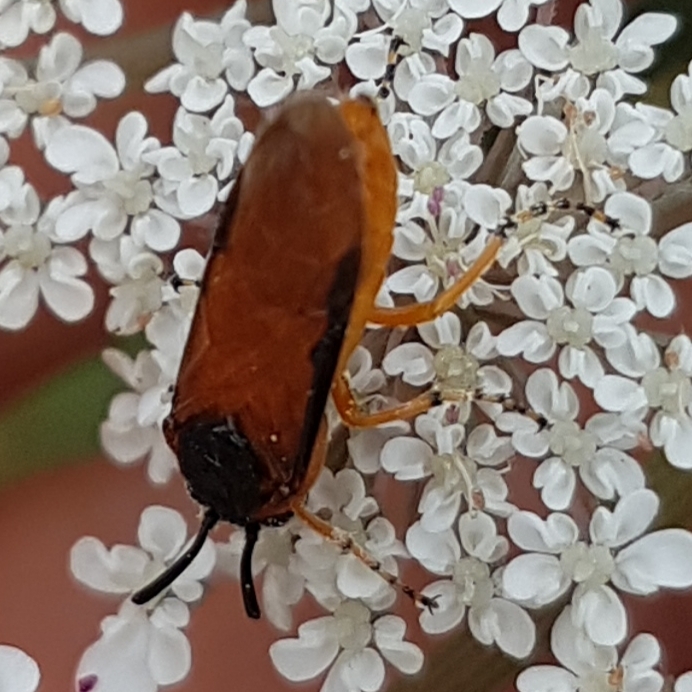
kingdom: Animalia
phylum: Arthropoda
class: Insecta
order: Hymenoptera
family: Argidae
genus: Arge
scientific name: Arge ochropus
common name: Argid sawfly
